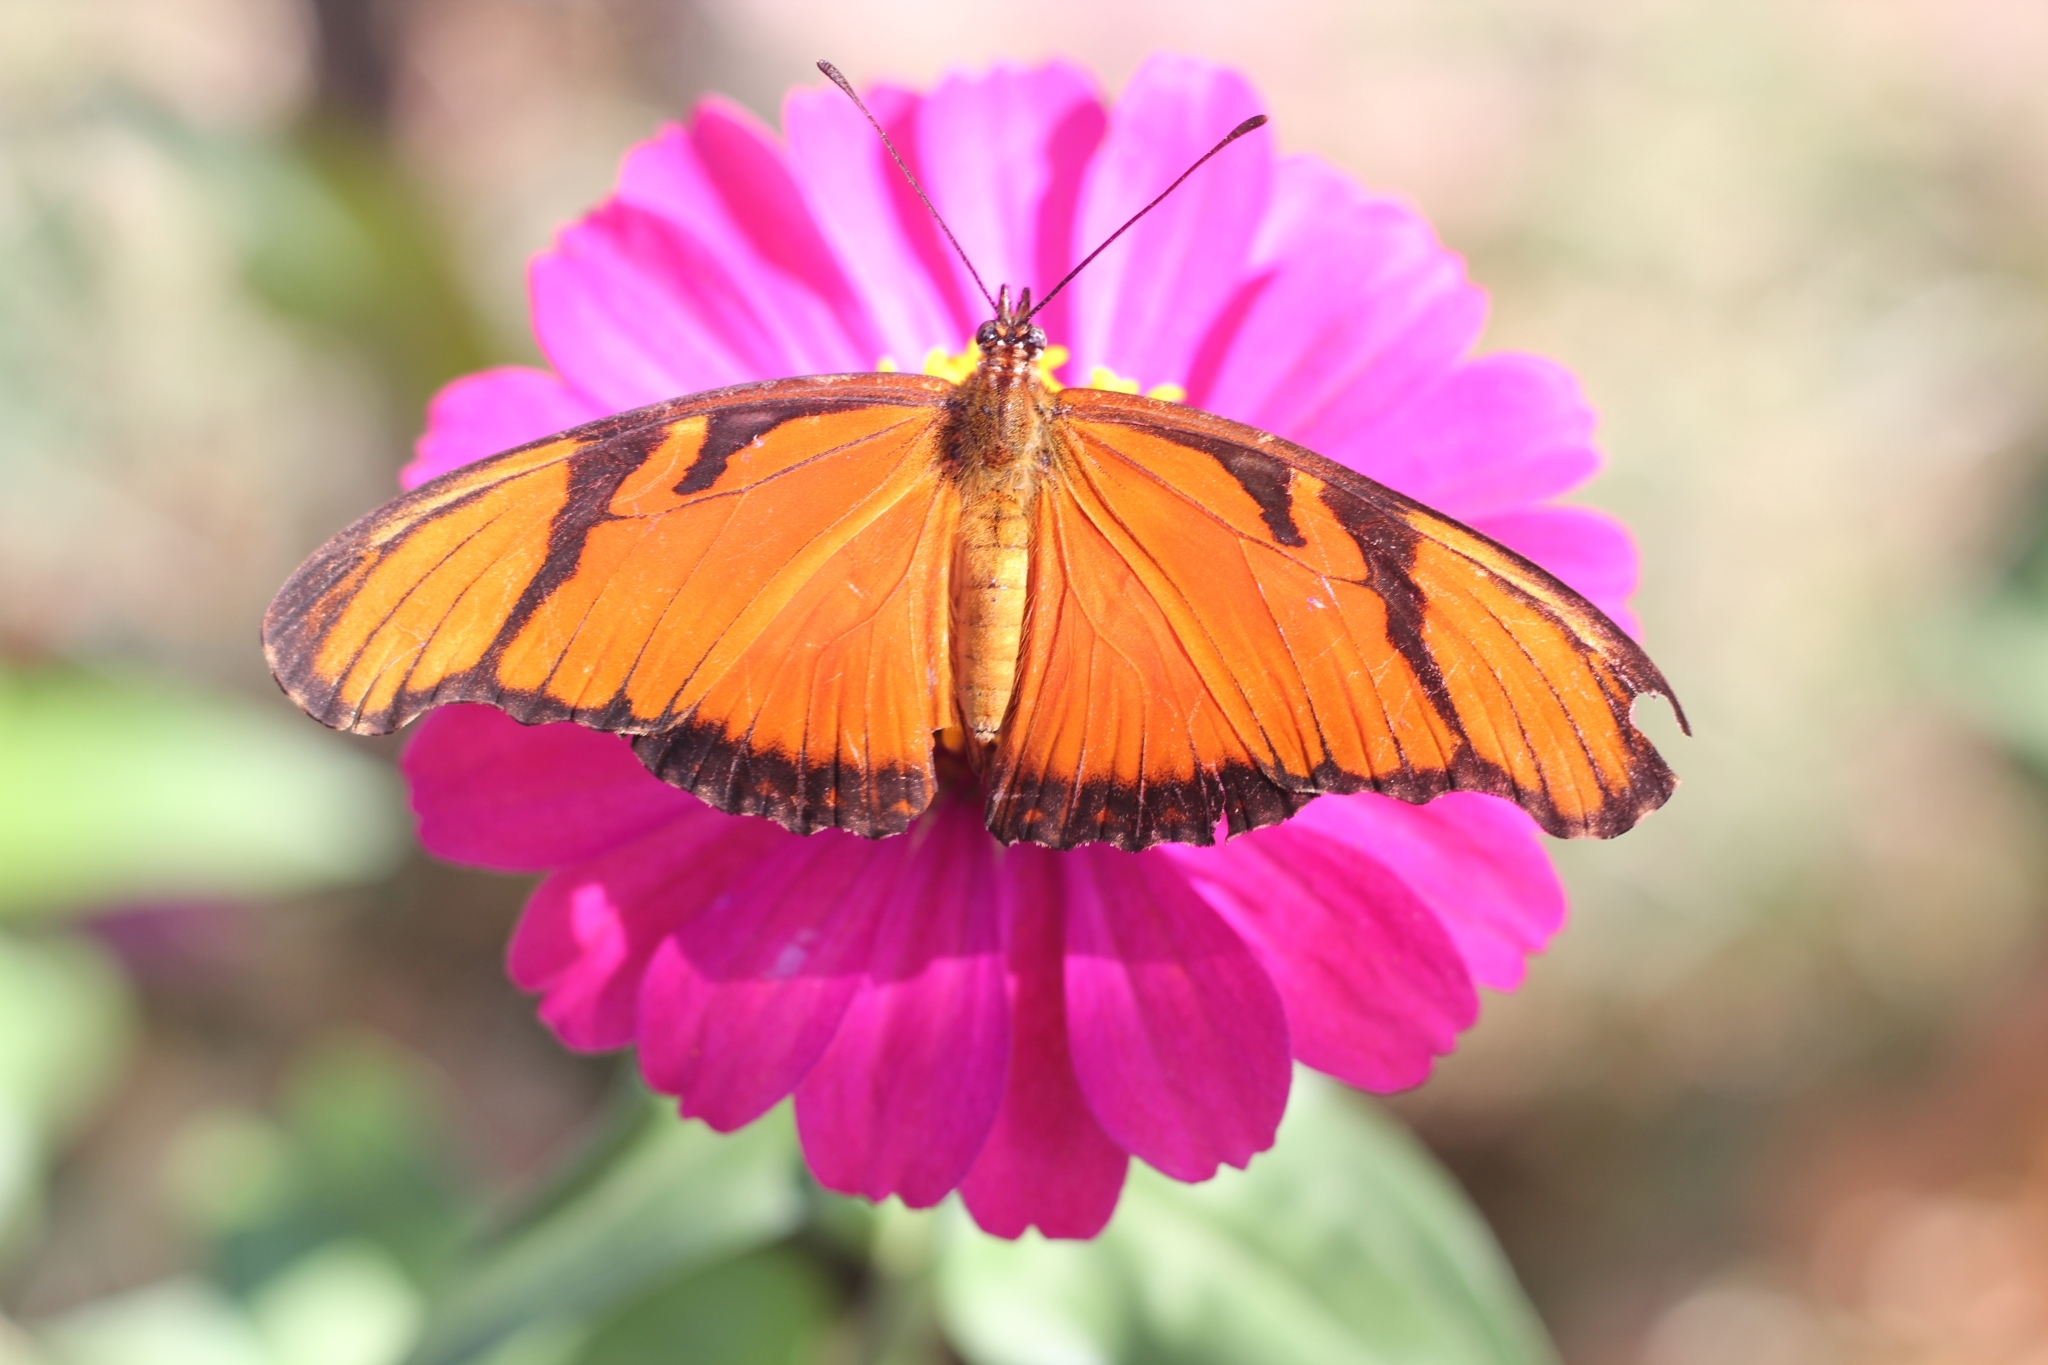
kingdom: Animalia
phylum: Arthropoda
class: Insecta
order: Lepidoptera
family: Nymphalidae
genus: Dione
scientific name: Dione juno
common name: Juno silverspot
